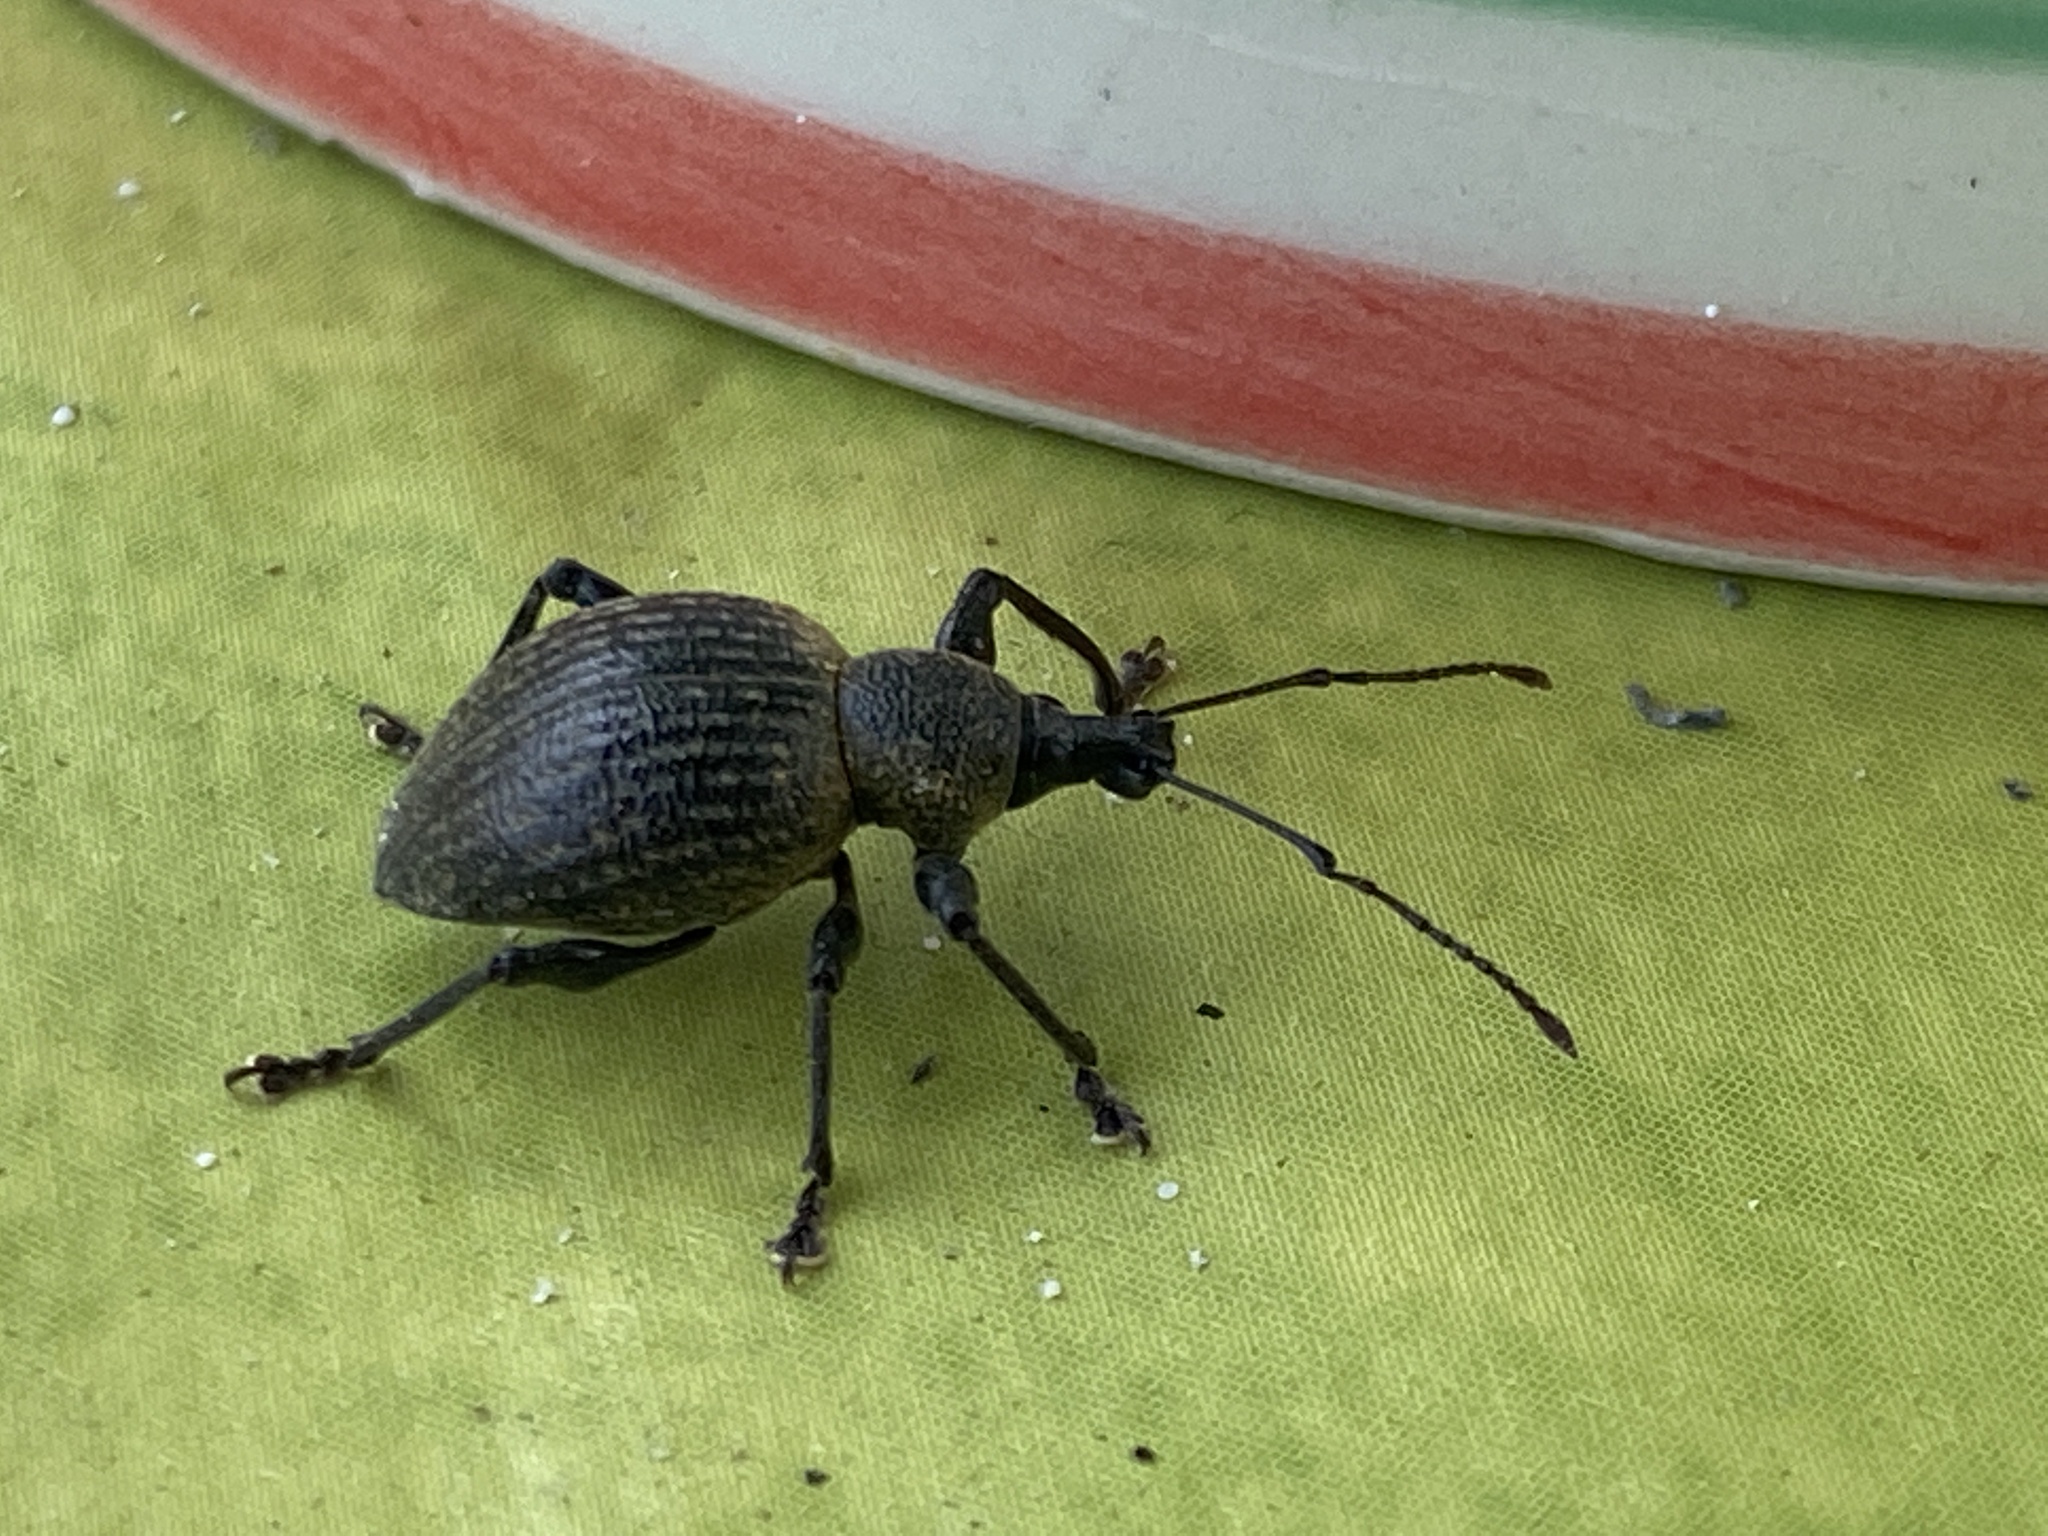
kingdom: Animalia
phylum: Arthropoda
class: Insecta
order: Coleoptera
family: Curculionidae
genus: Otiorhynchus
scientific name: Otiorhynchus pseudonothus
